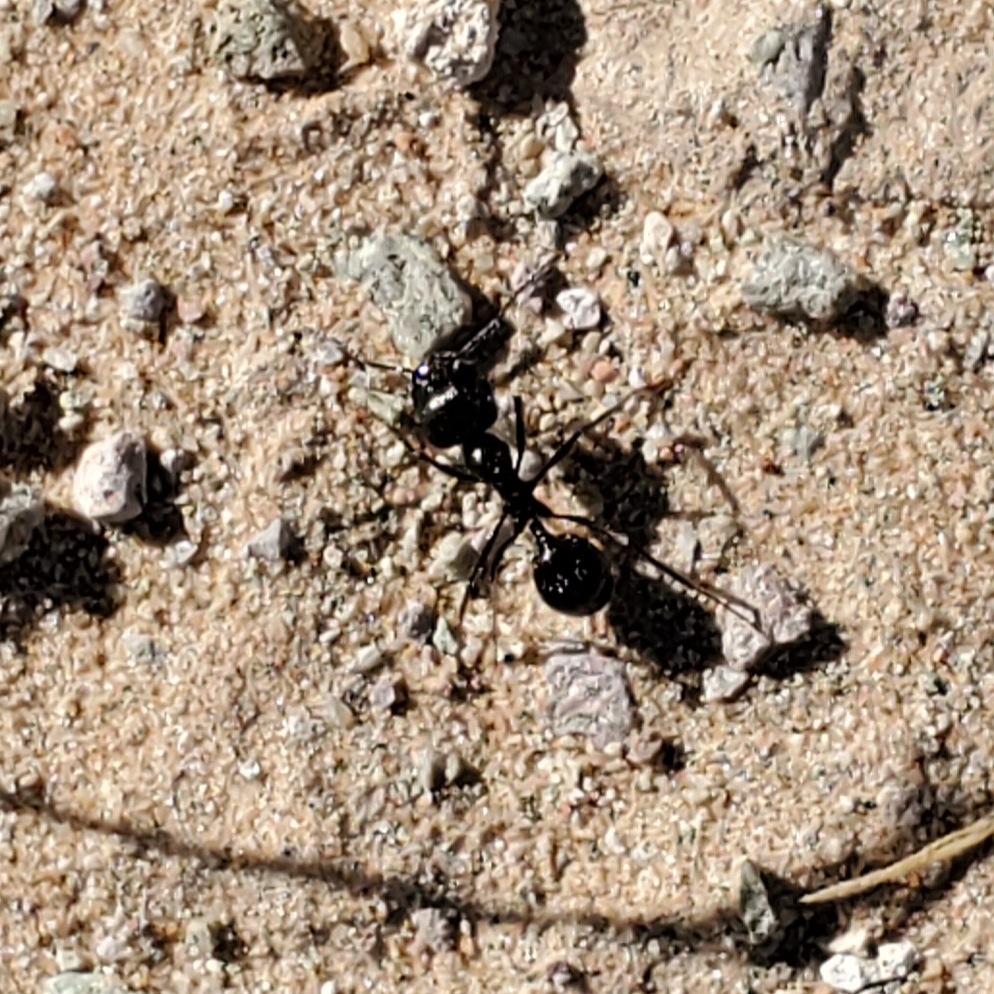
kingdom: Animalia
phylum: Arthropoda
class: Insecta
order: Hymenoptera
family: Formicidae
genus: Messor
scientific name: Messor pergandei
